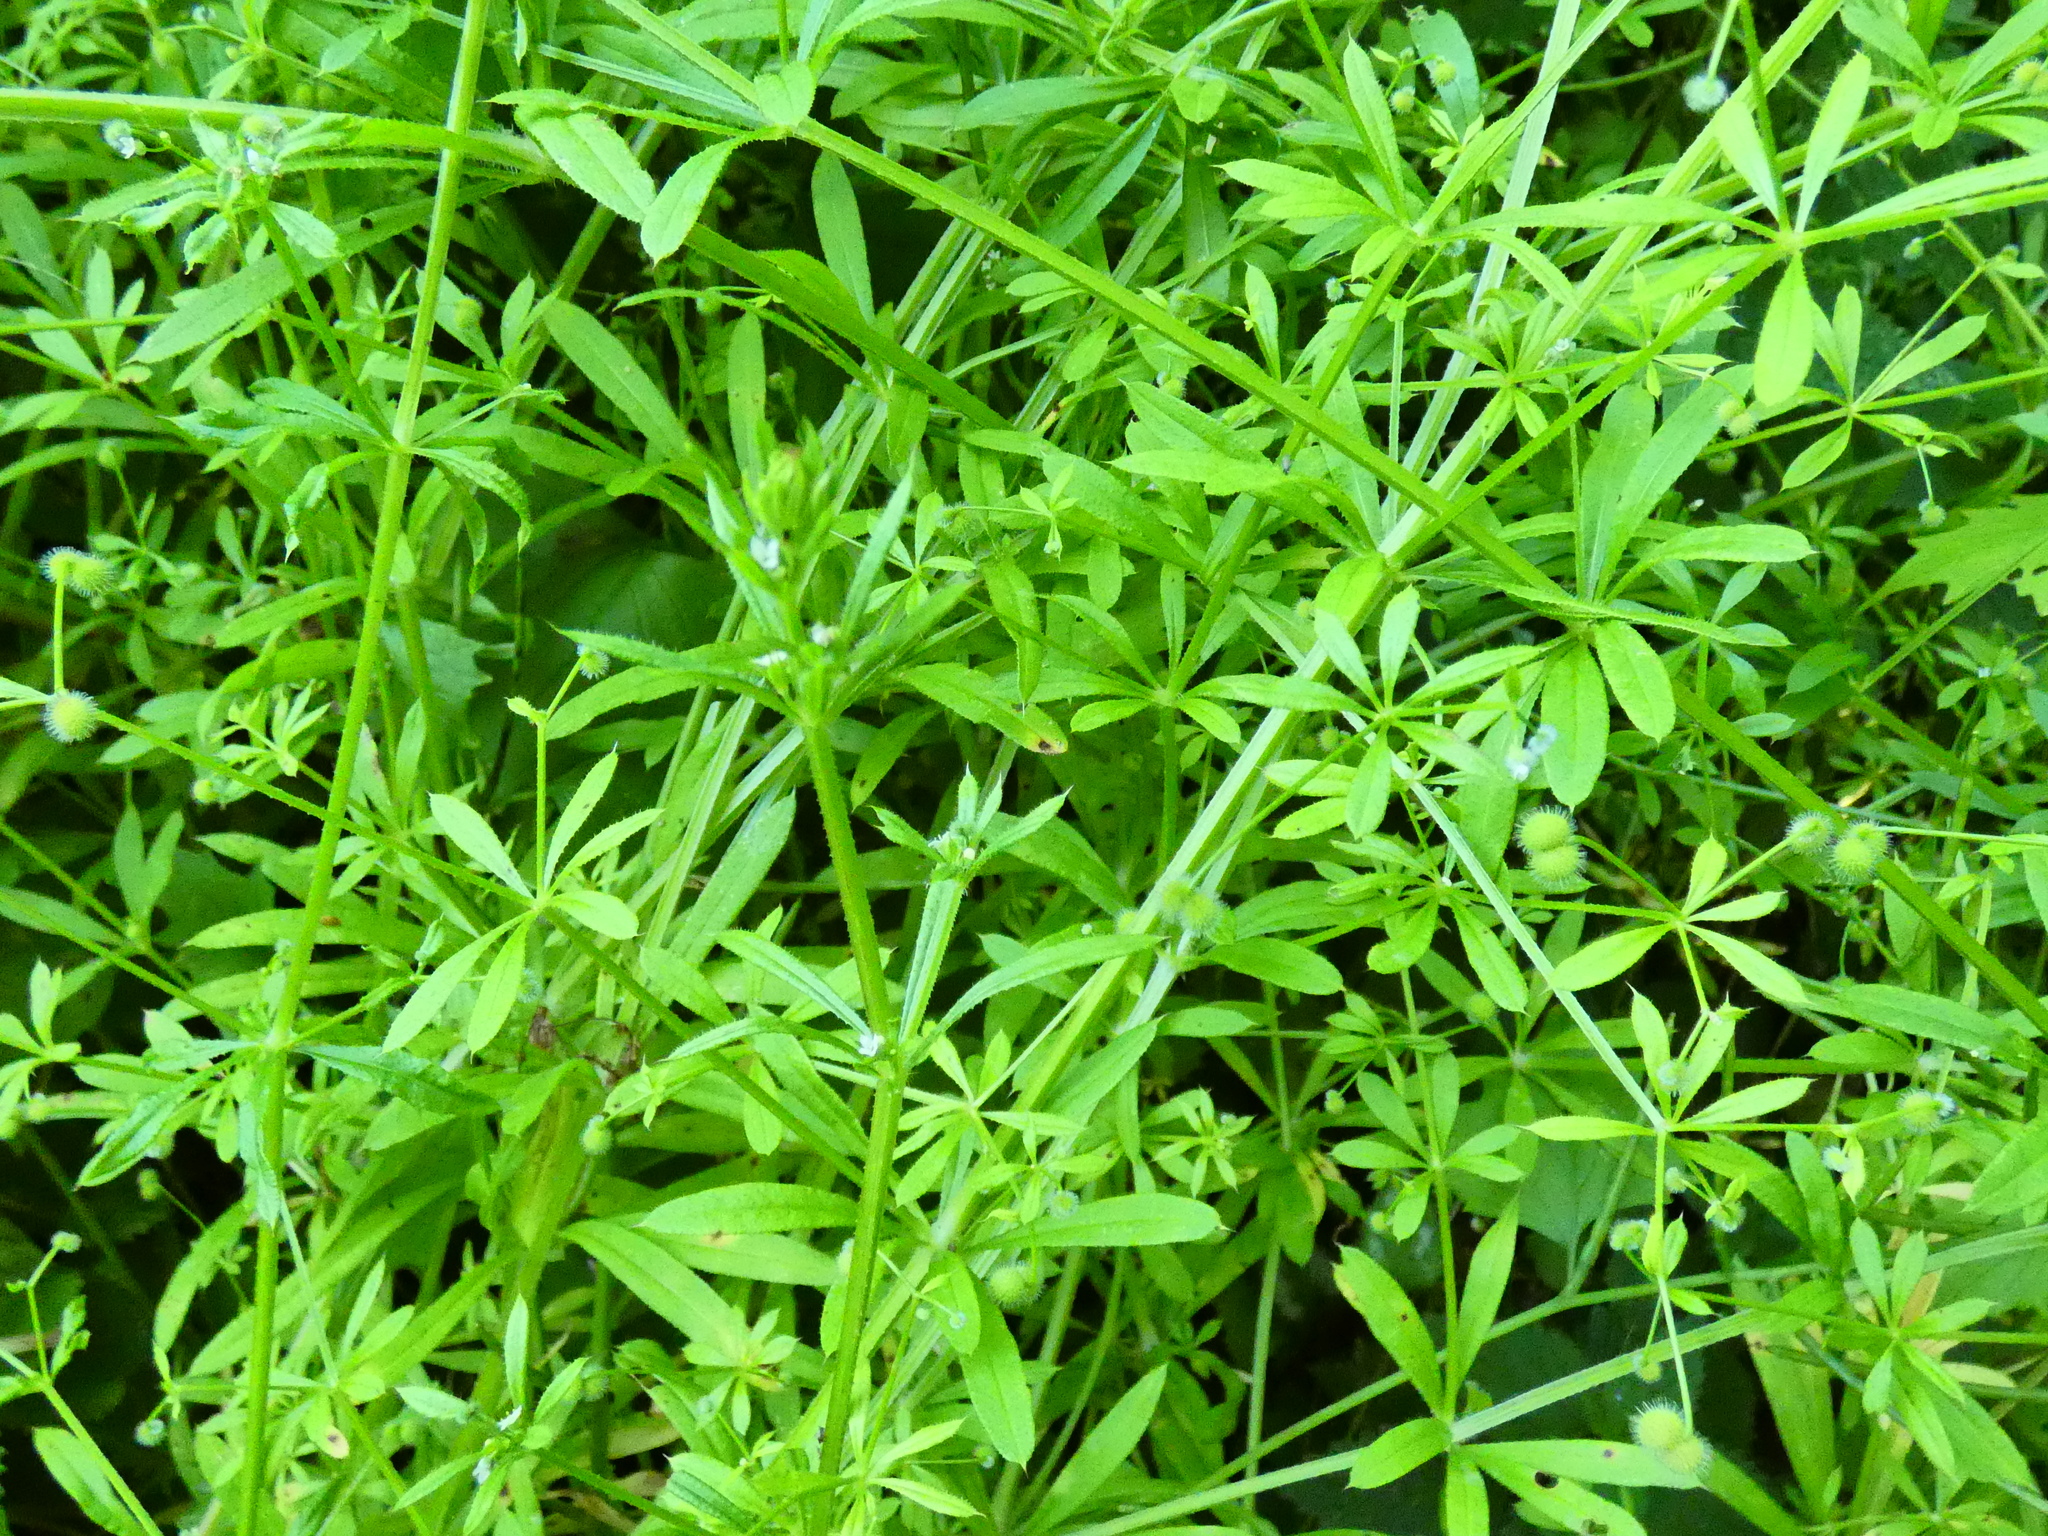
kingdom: Plantae
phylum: Tracheophyta
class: Magnoliopsida
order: Gentianales
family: Rubiaceae
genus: Galium
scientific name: Galium aparine
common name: Cleavers
